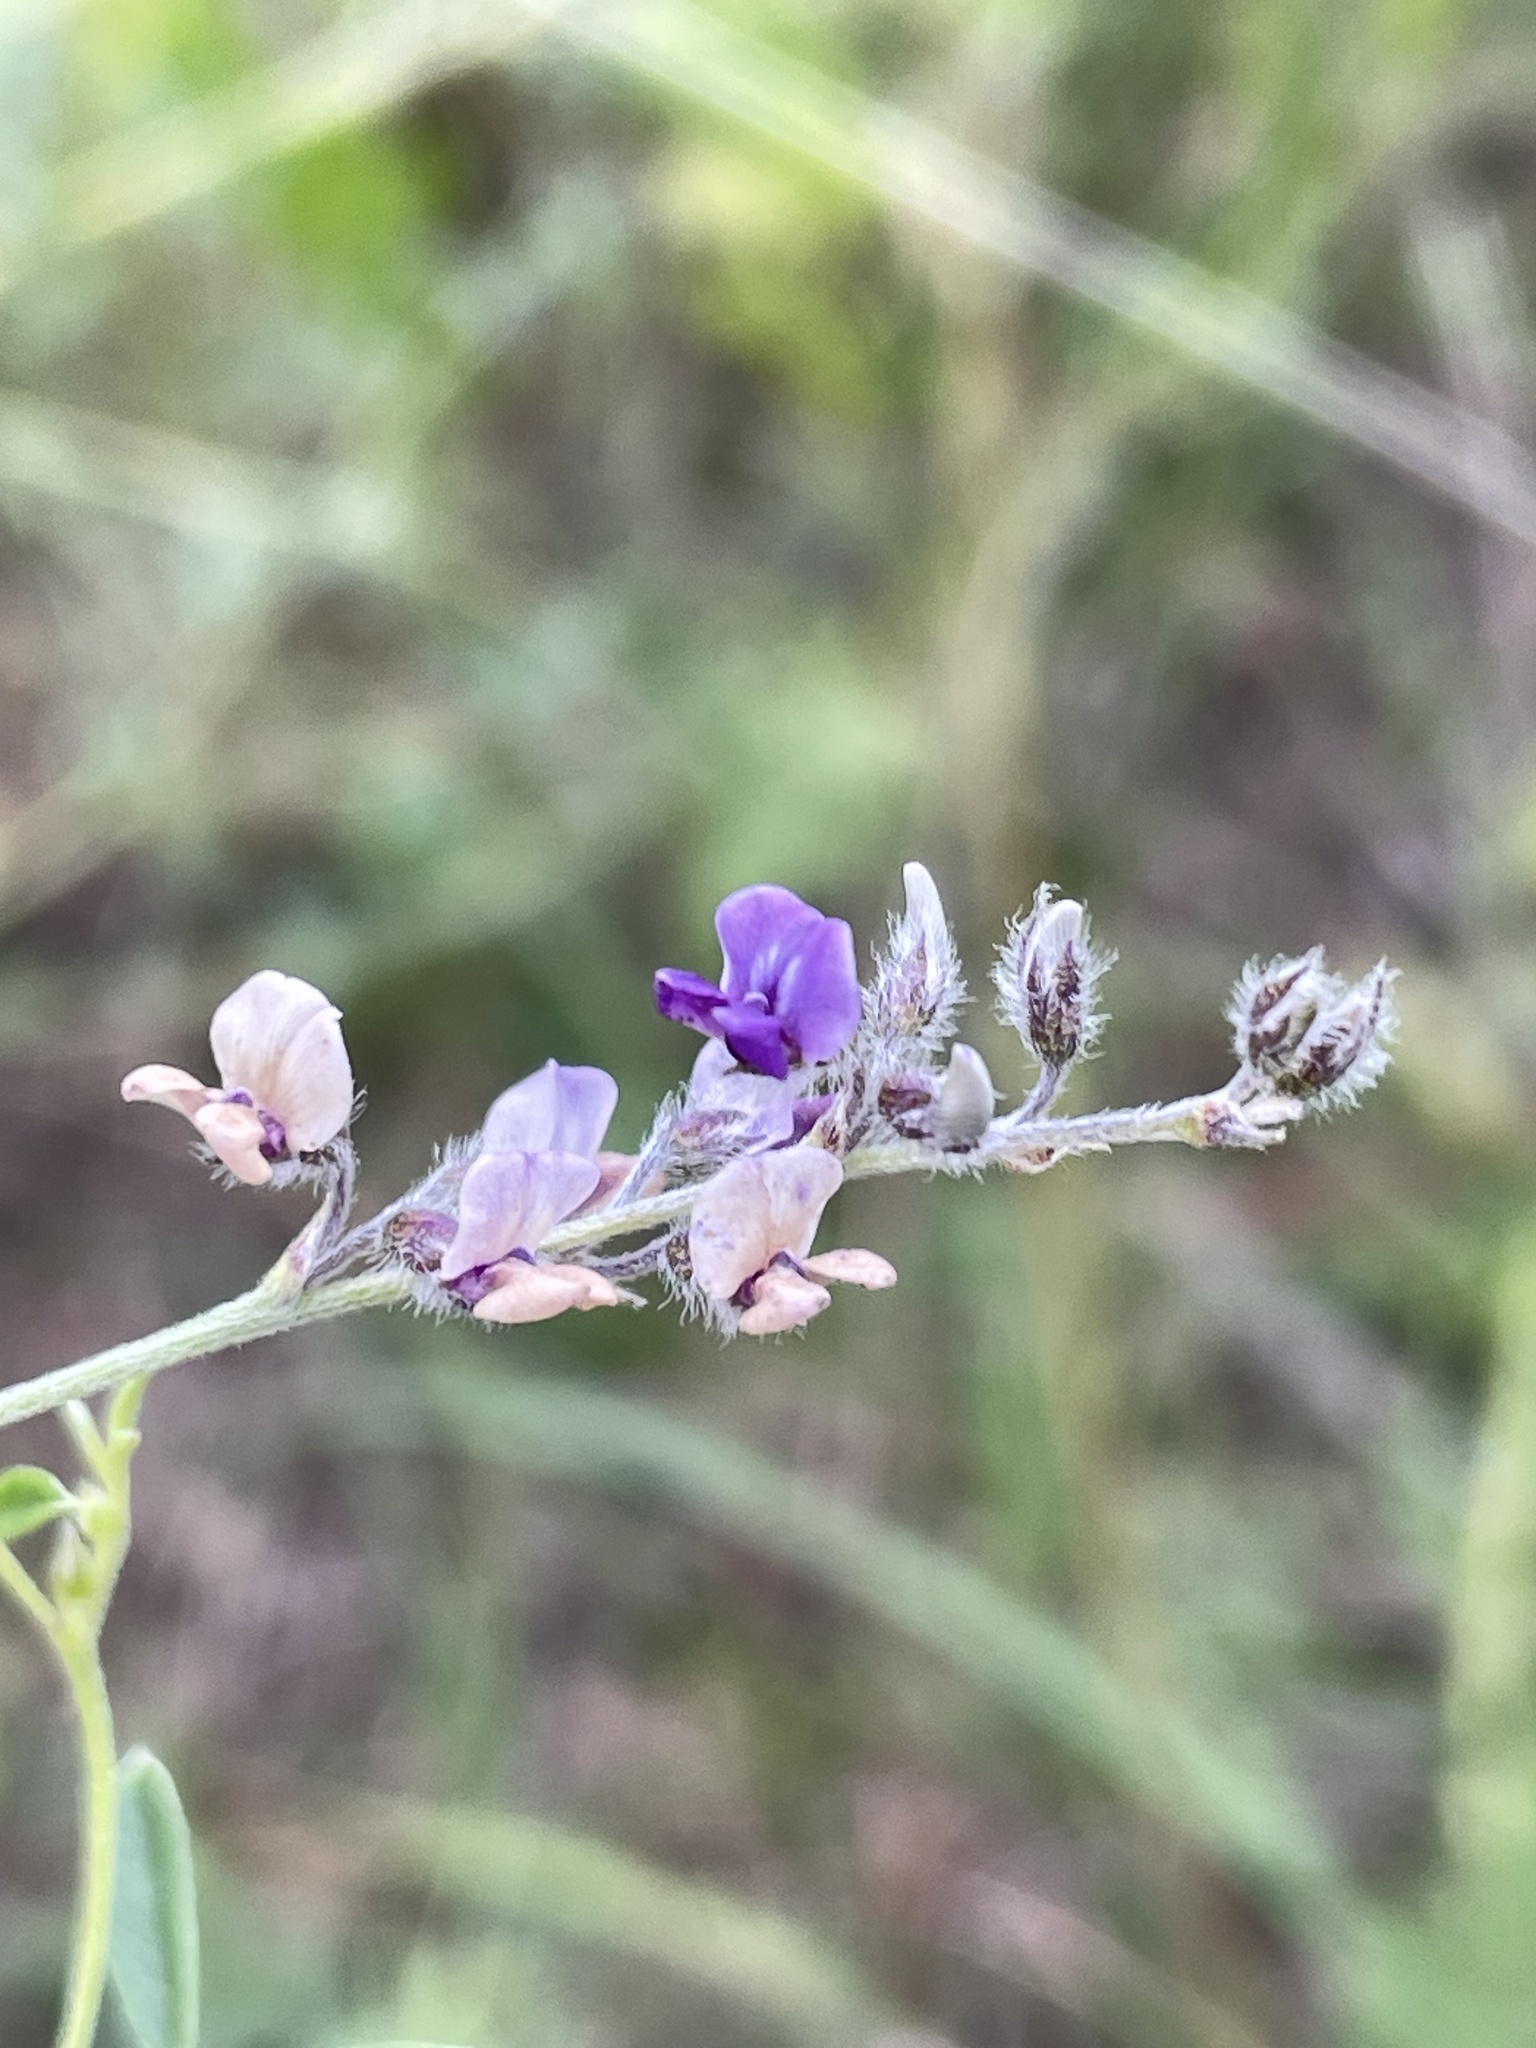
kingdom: Plantae
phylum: Tracheophyta
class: Magnoliopsida
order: Fabales
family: Fabaceae
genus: Pediomelum
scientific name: Pediomelum tenuiflorum
